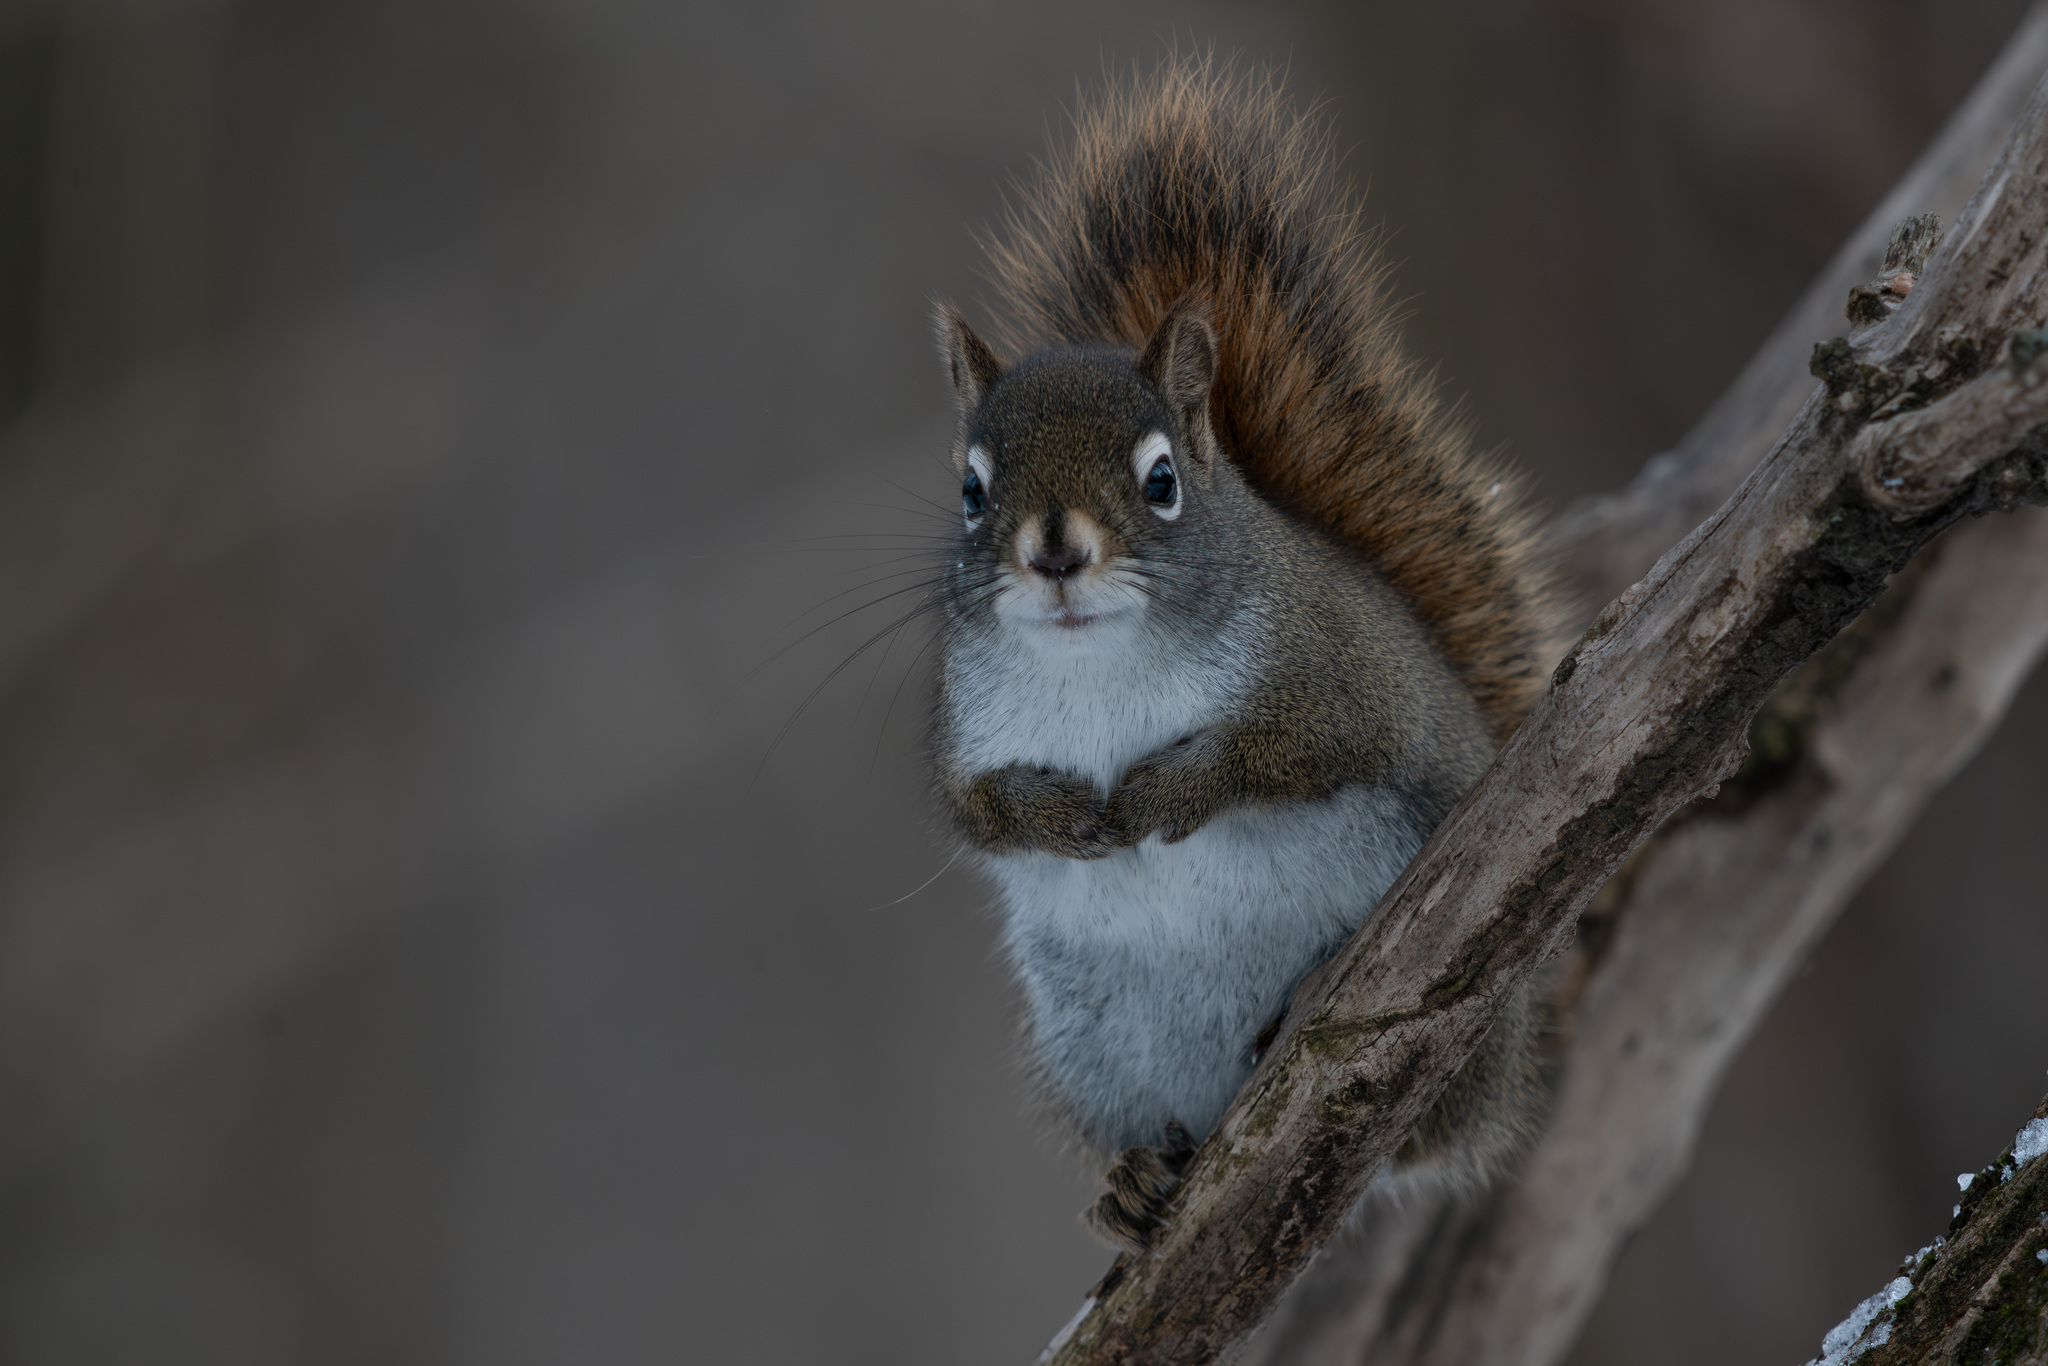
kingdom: Animalia
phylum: Chordata
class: Mammalia
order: Rodentia
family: Sciuridae
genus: Tamiasciurus
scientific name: Tamiasciurus hudsonicus
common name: Red squirrel
